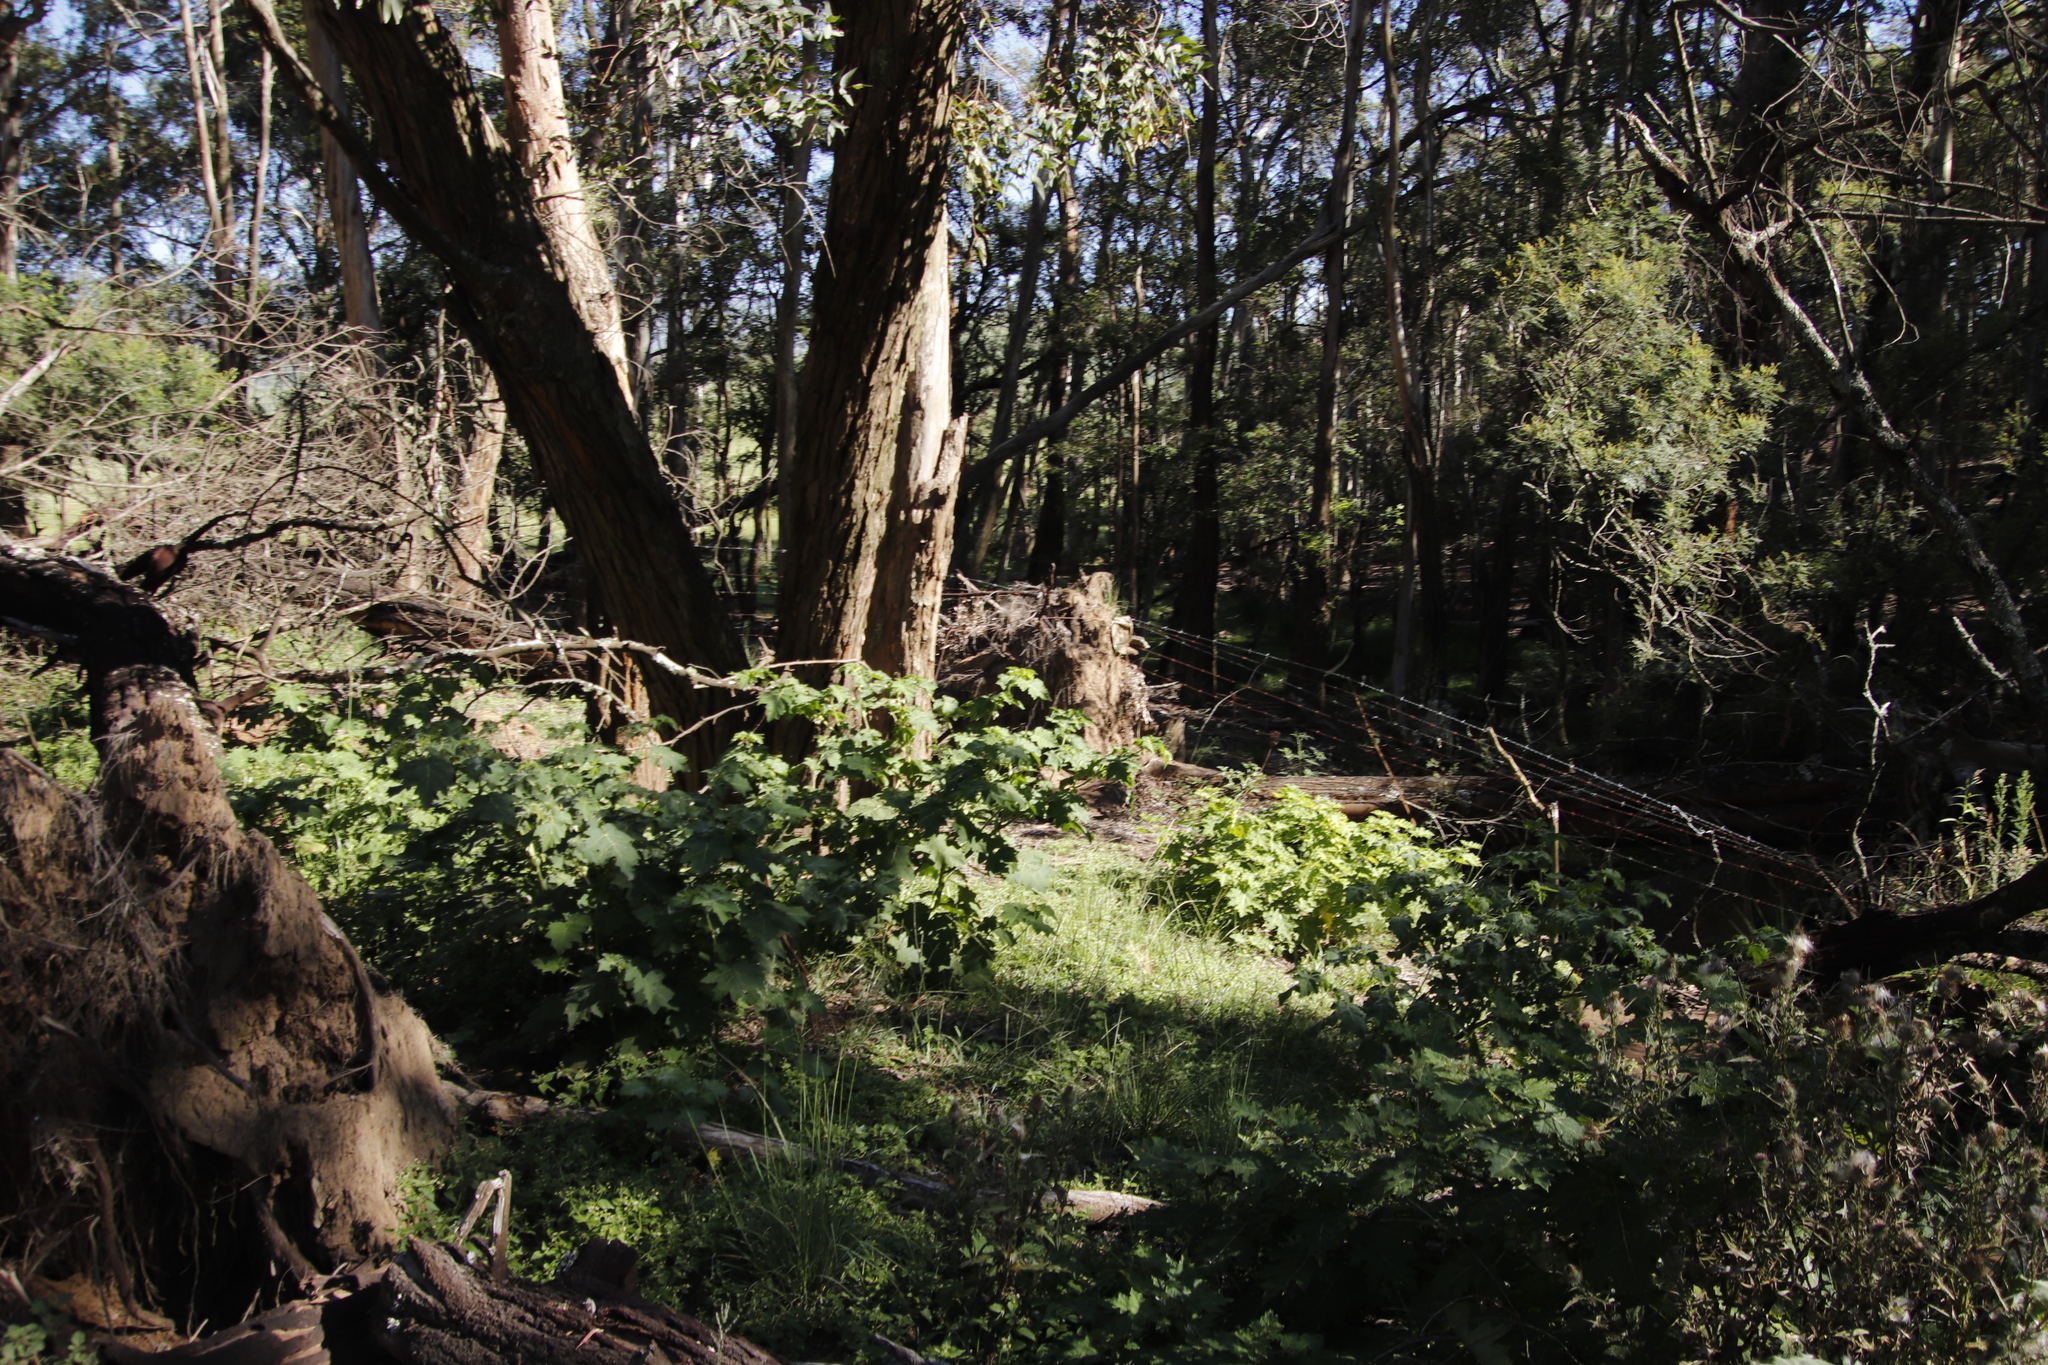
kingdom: Plantae
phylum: Tracheophyta
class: Magnoliopsida
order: Solanales
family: Solanaceae
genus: Solanum
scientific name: Solanum aculeatissimum
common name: Dutch eggplant
